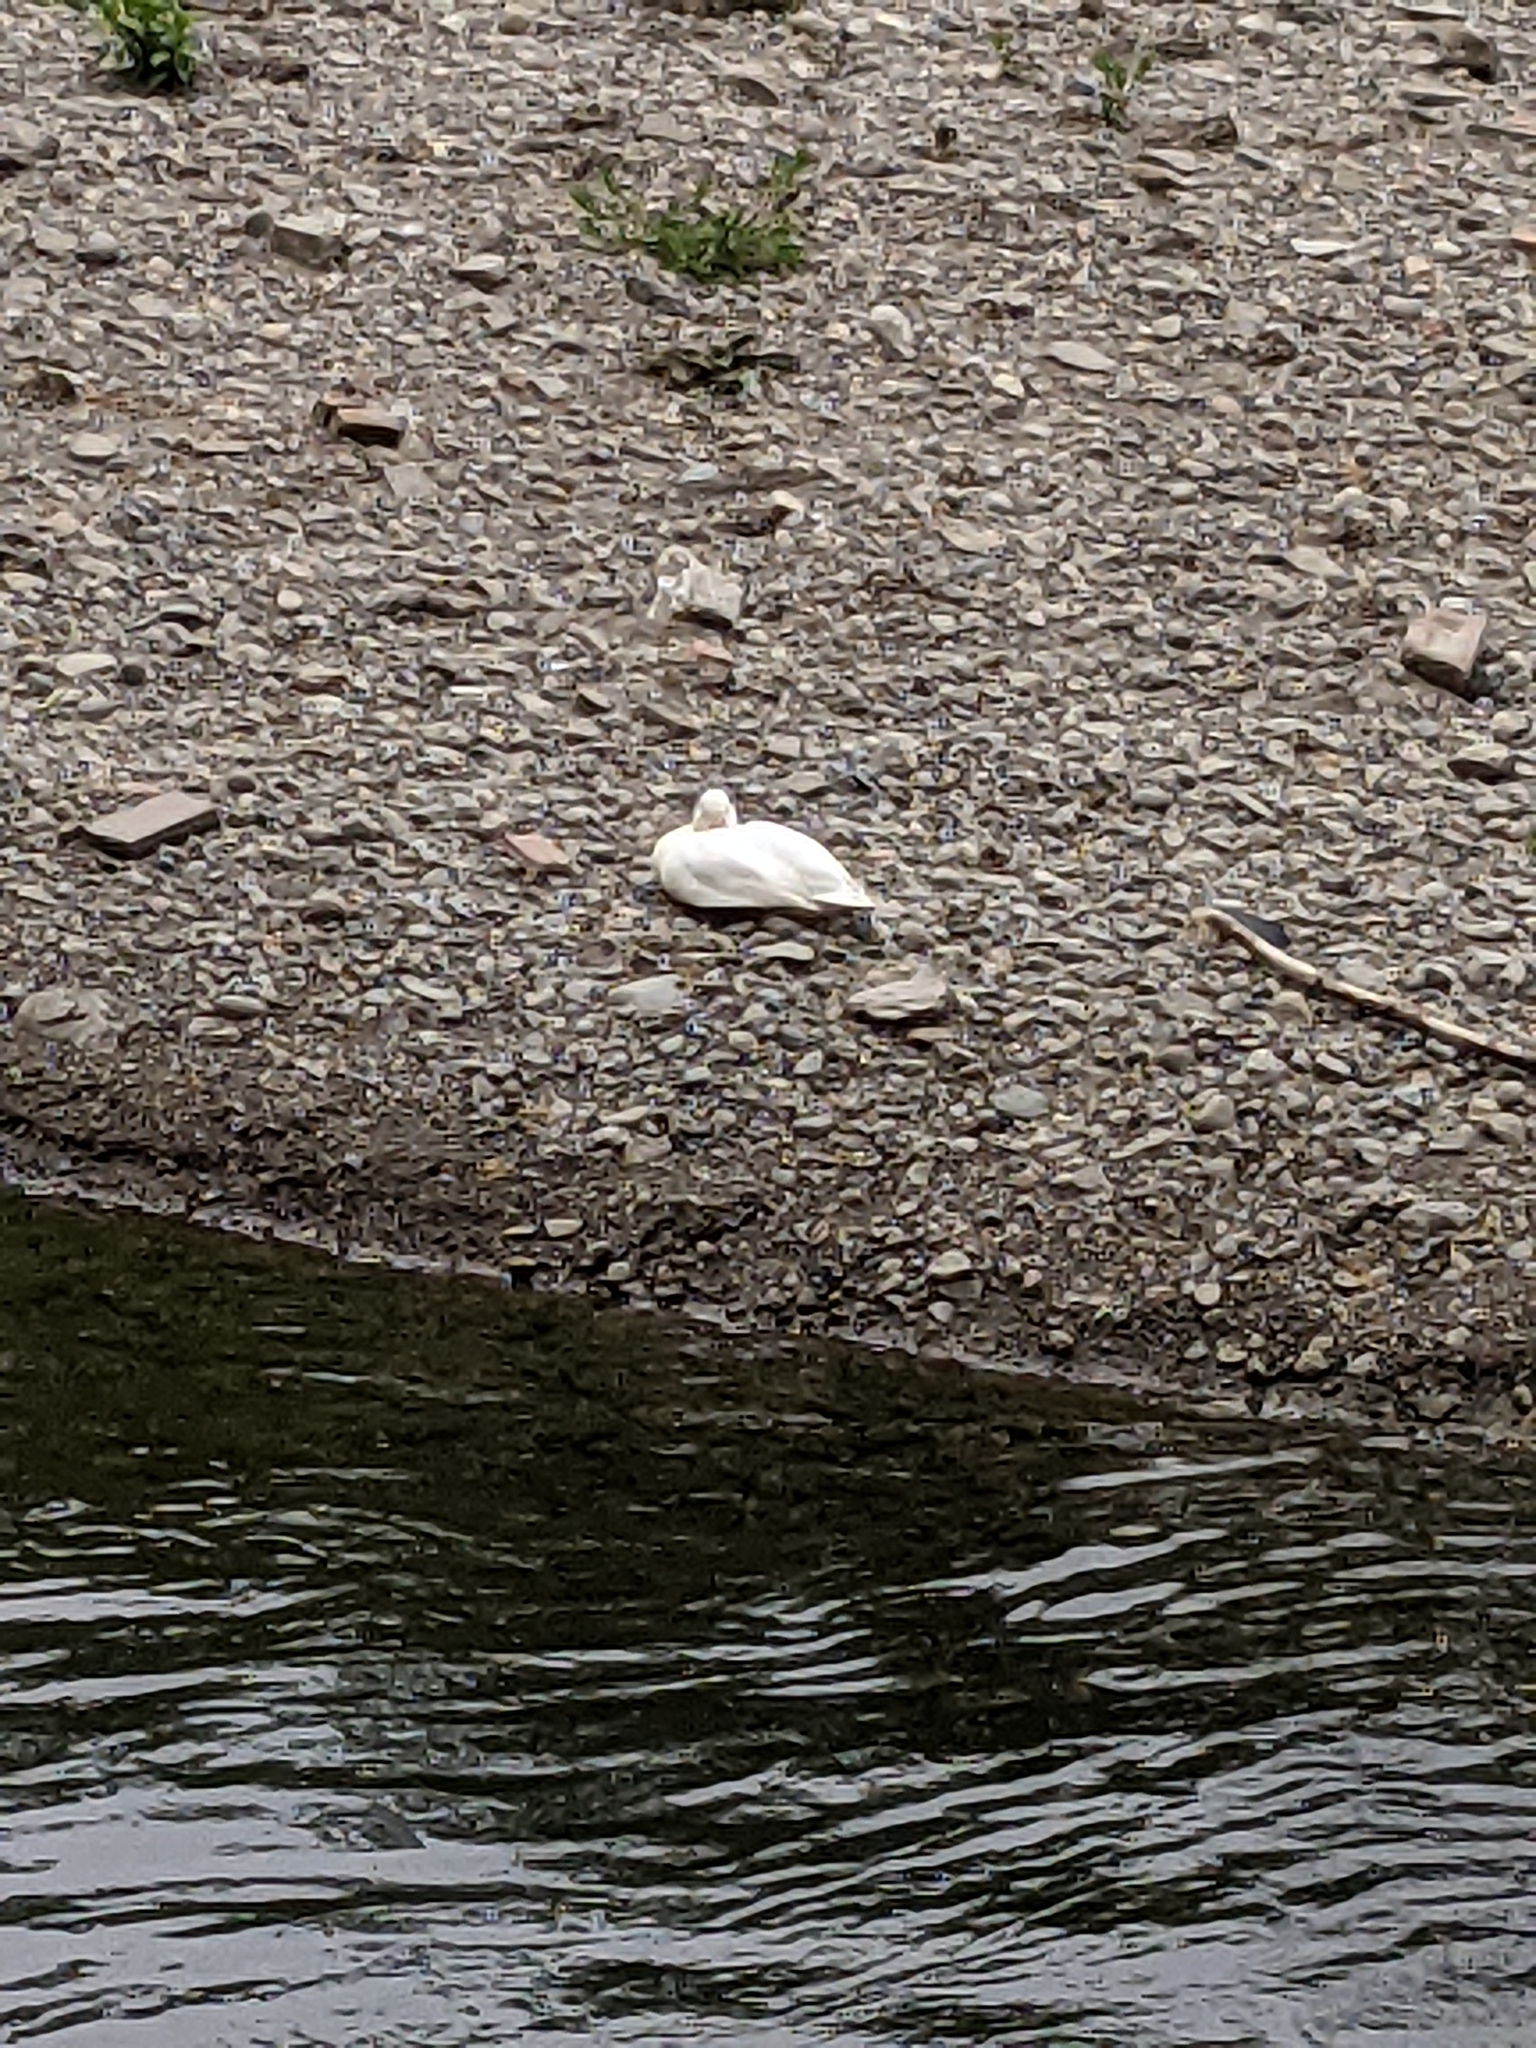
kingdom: Animalia
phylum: Chordata
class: Aves
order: Anseriformes
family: Anatidae
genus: Anas
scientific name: Anas platyrhynchos
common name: Mallard
